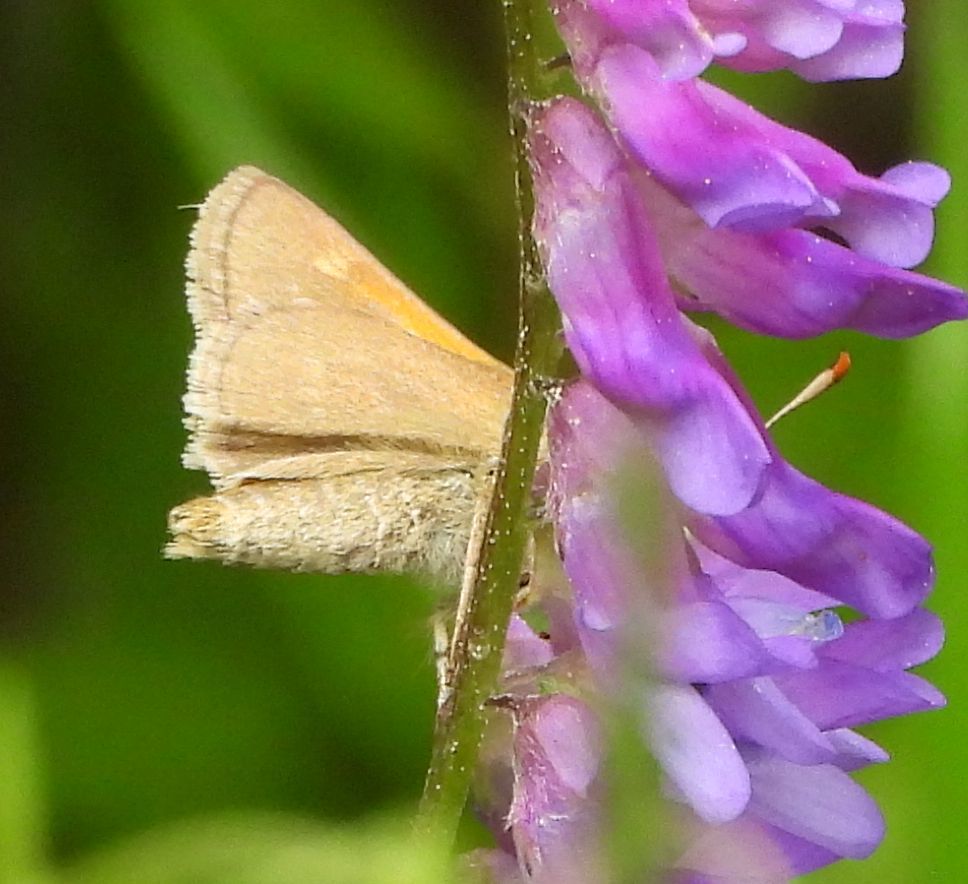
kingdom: Animalia
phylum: Arthropoda
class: Insecta
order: Lepidoptera
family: Hesperiidae
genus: Polites
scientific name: Polites themistocles
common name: Tawny-edged skipper
